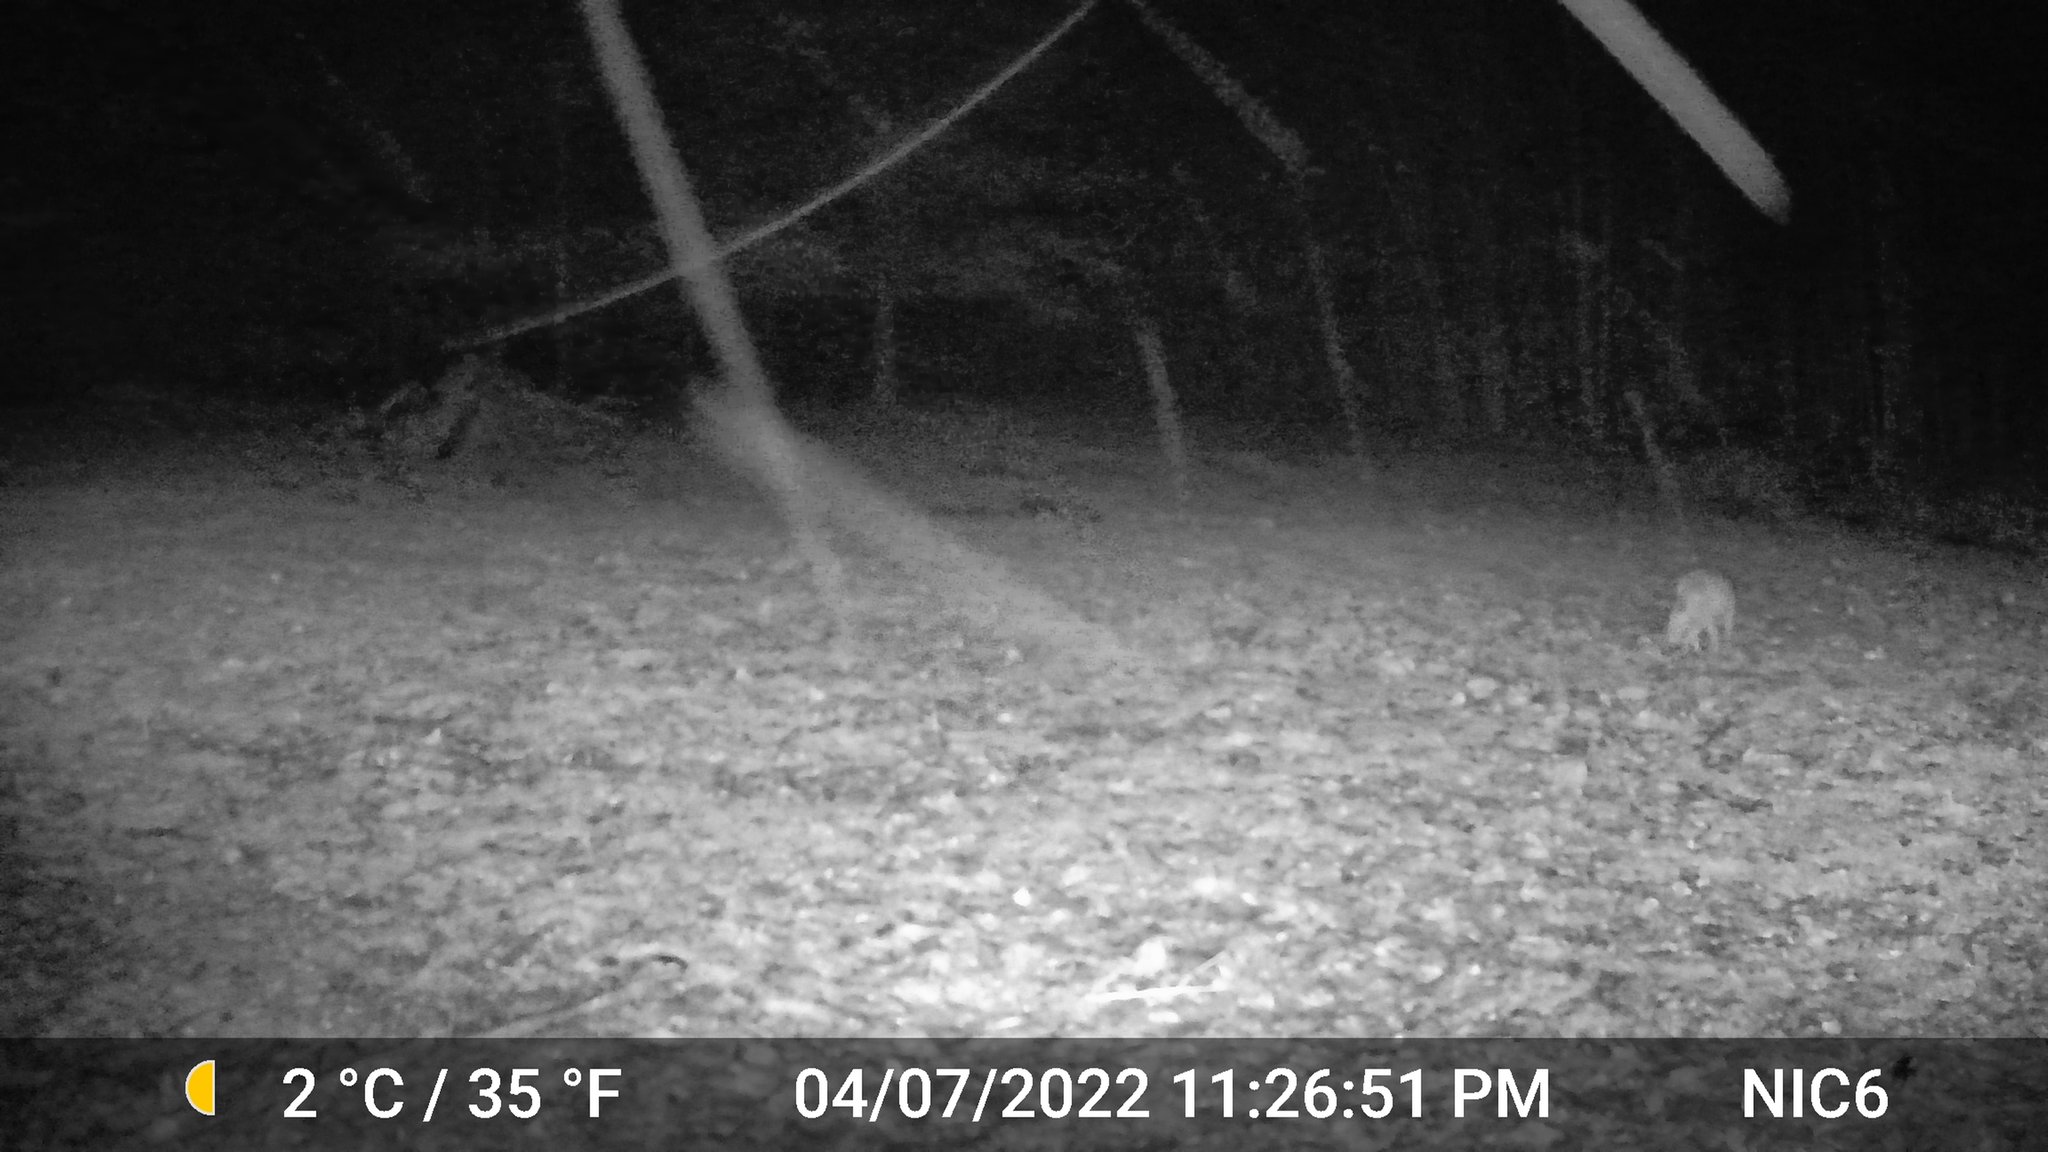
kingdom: Animalia
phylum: Chordata
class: Mammalia
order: Carnivora
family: Canidae
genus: Canis
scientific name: Canis latrans
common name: Coyote
